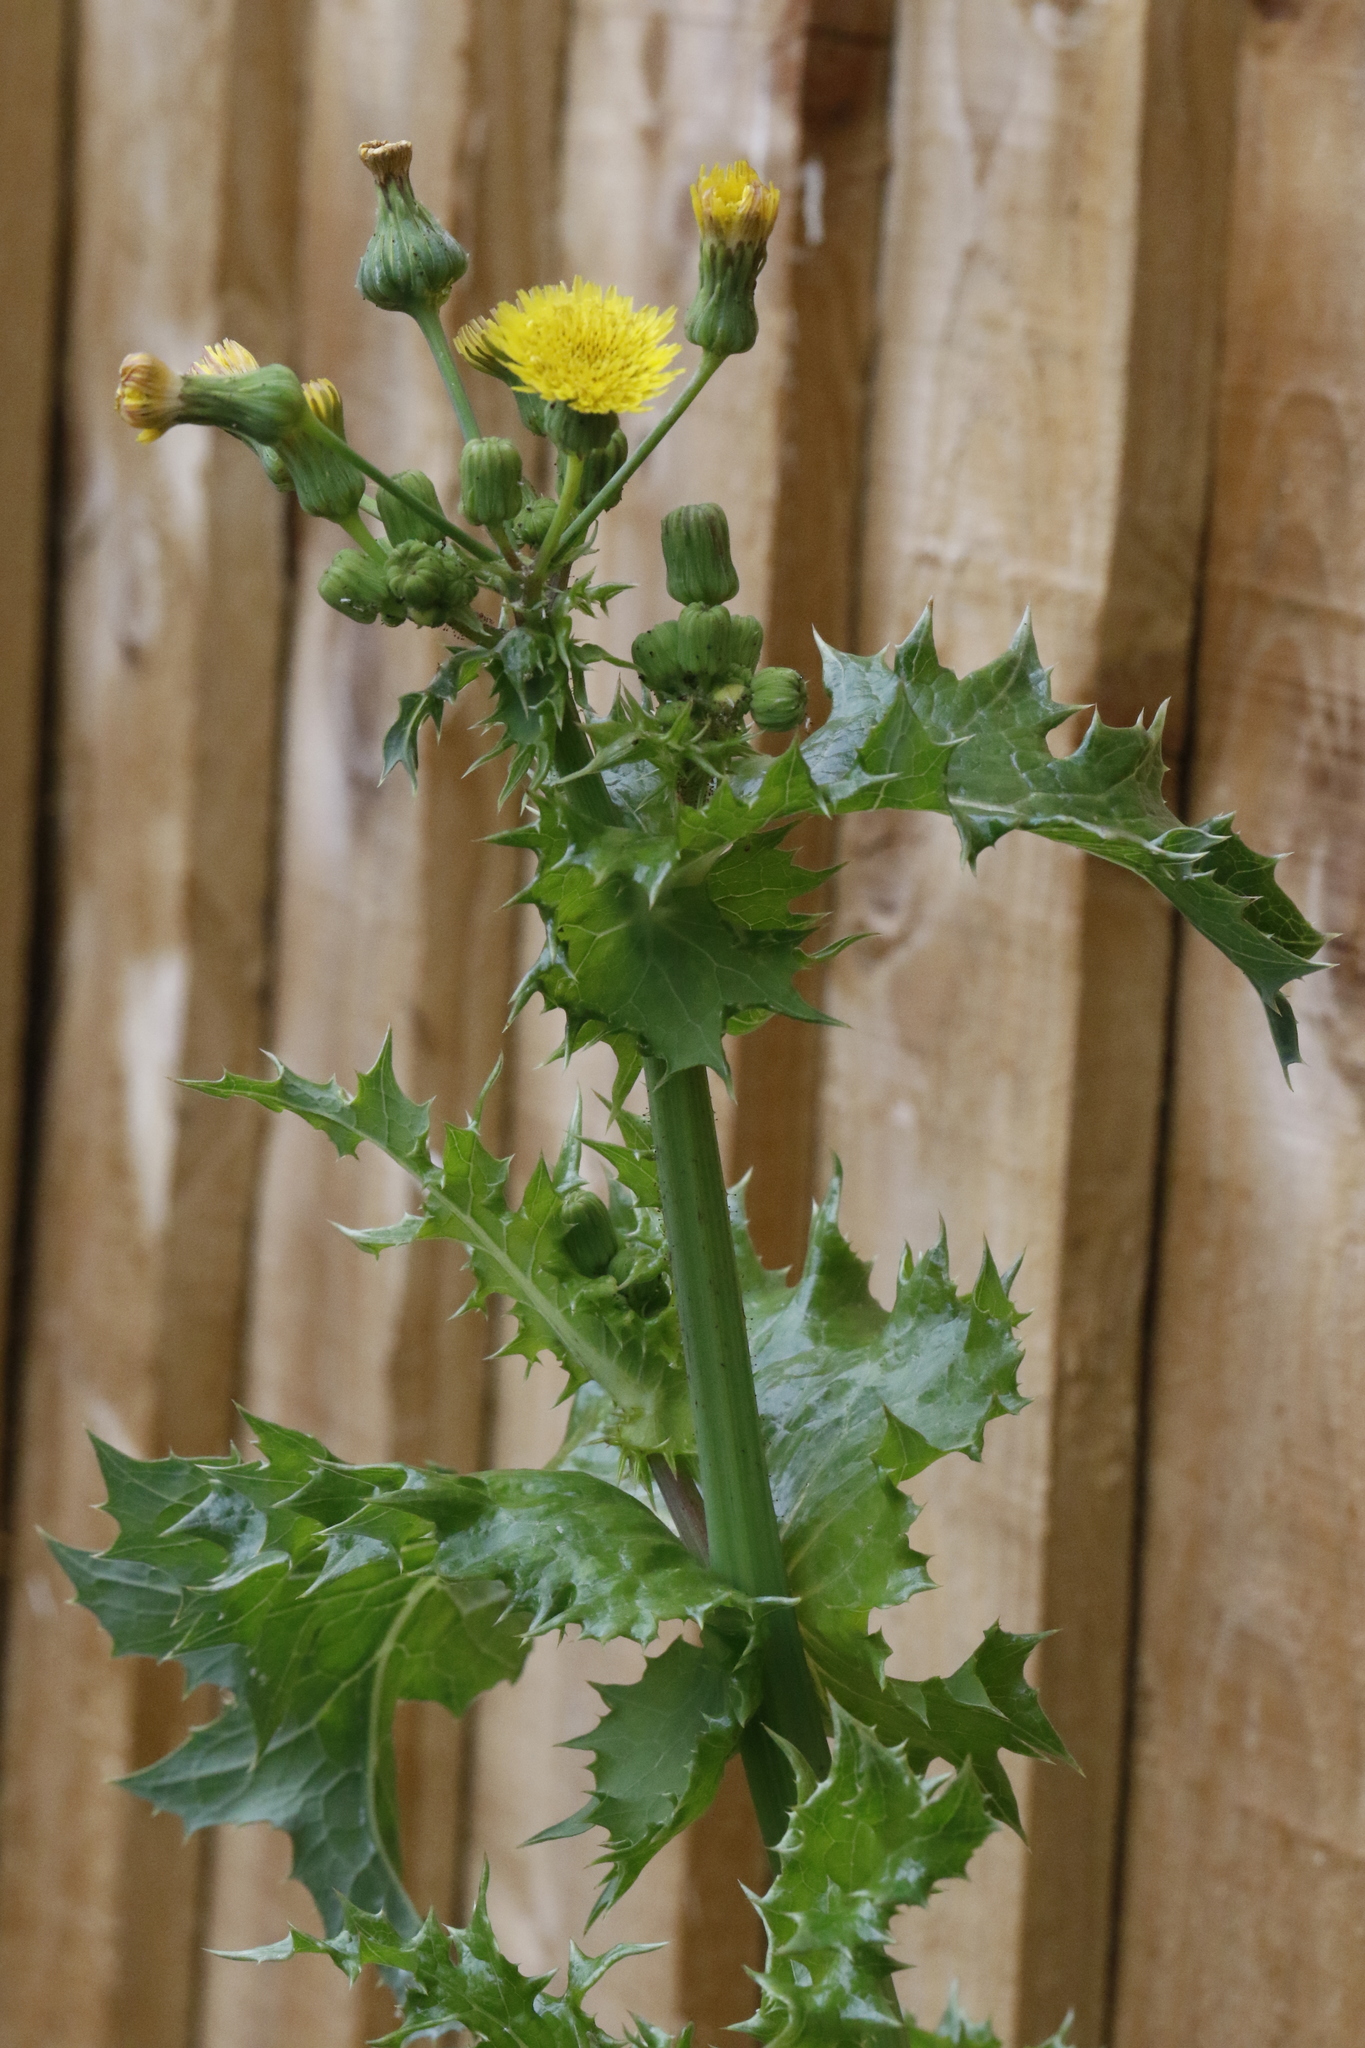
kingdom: Plantae
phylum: Tracheophyta
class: Magnoliopsida
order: Asterales
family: Asteraceae
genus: Sonchus
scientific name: Sonchus asper
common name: Prickly sow-thistle
